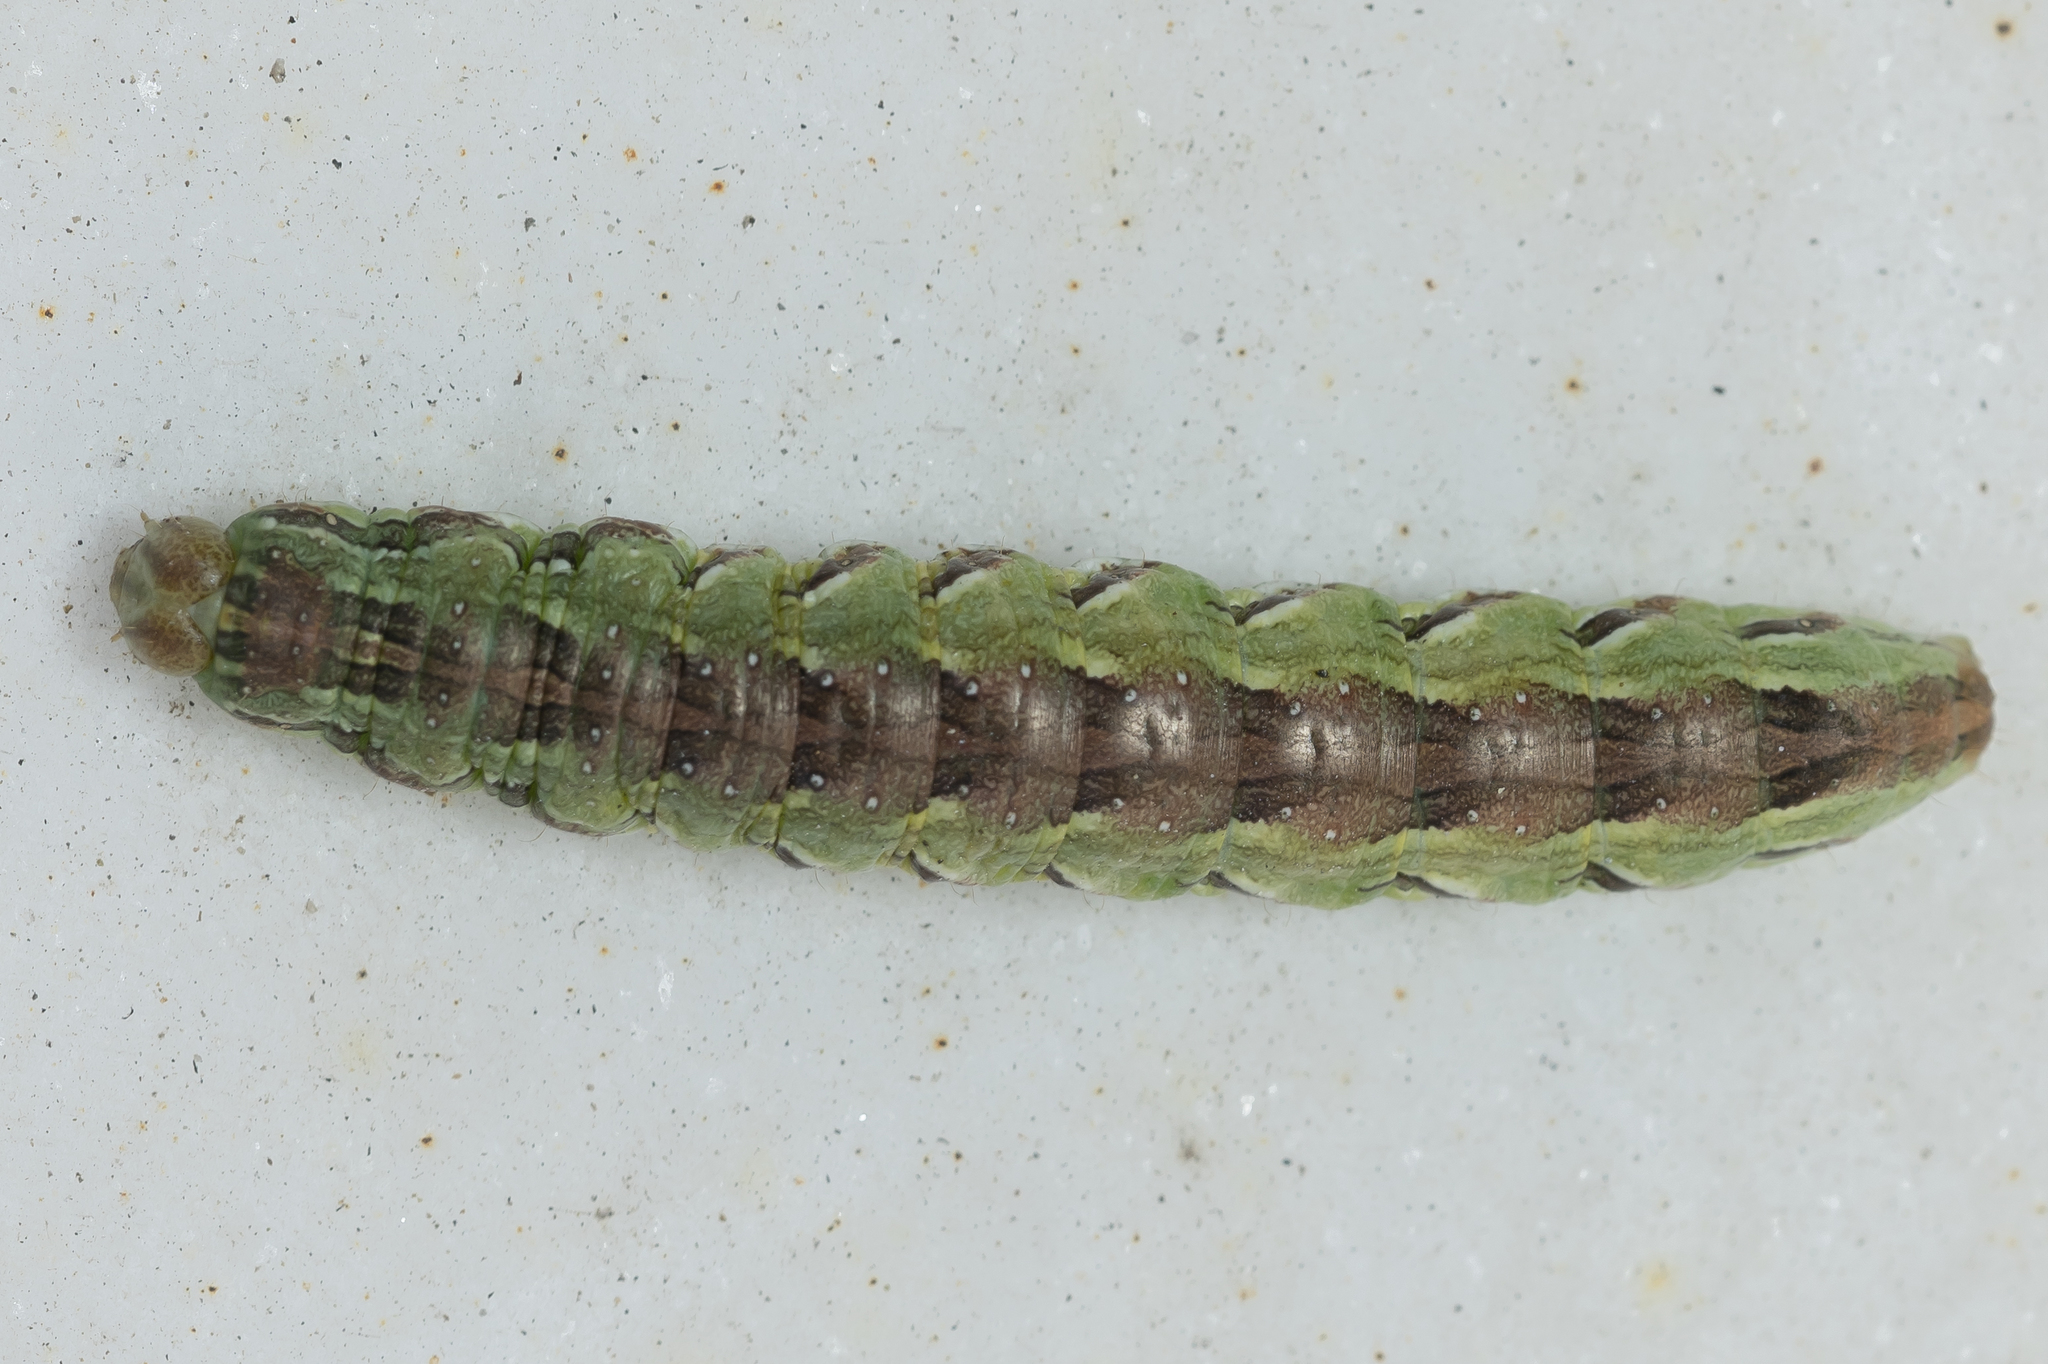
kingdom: Animalia
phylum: Arthropoda
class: Insecta
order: Lepidoptera
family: Noctuidae
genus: Cucullia
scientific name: Cucullia calendulae
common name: Marigold shark
